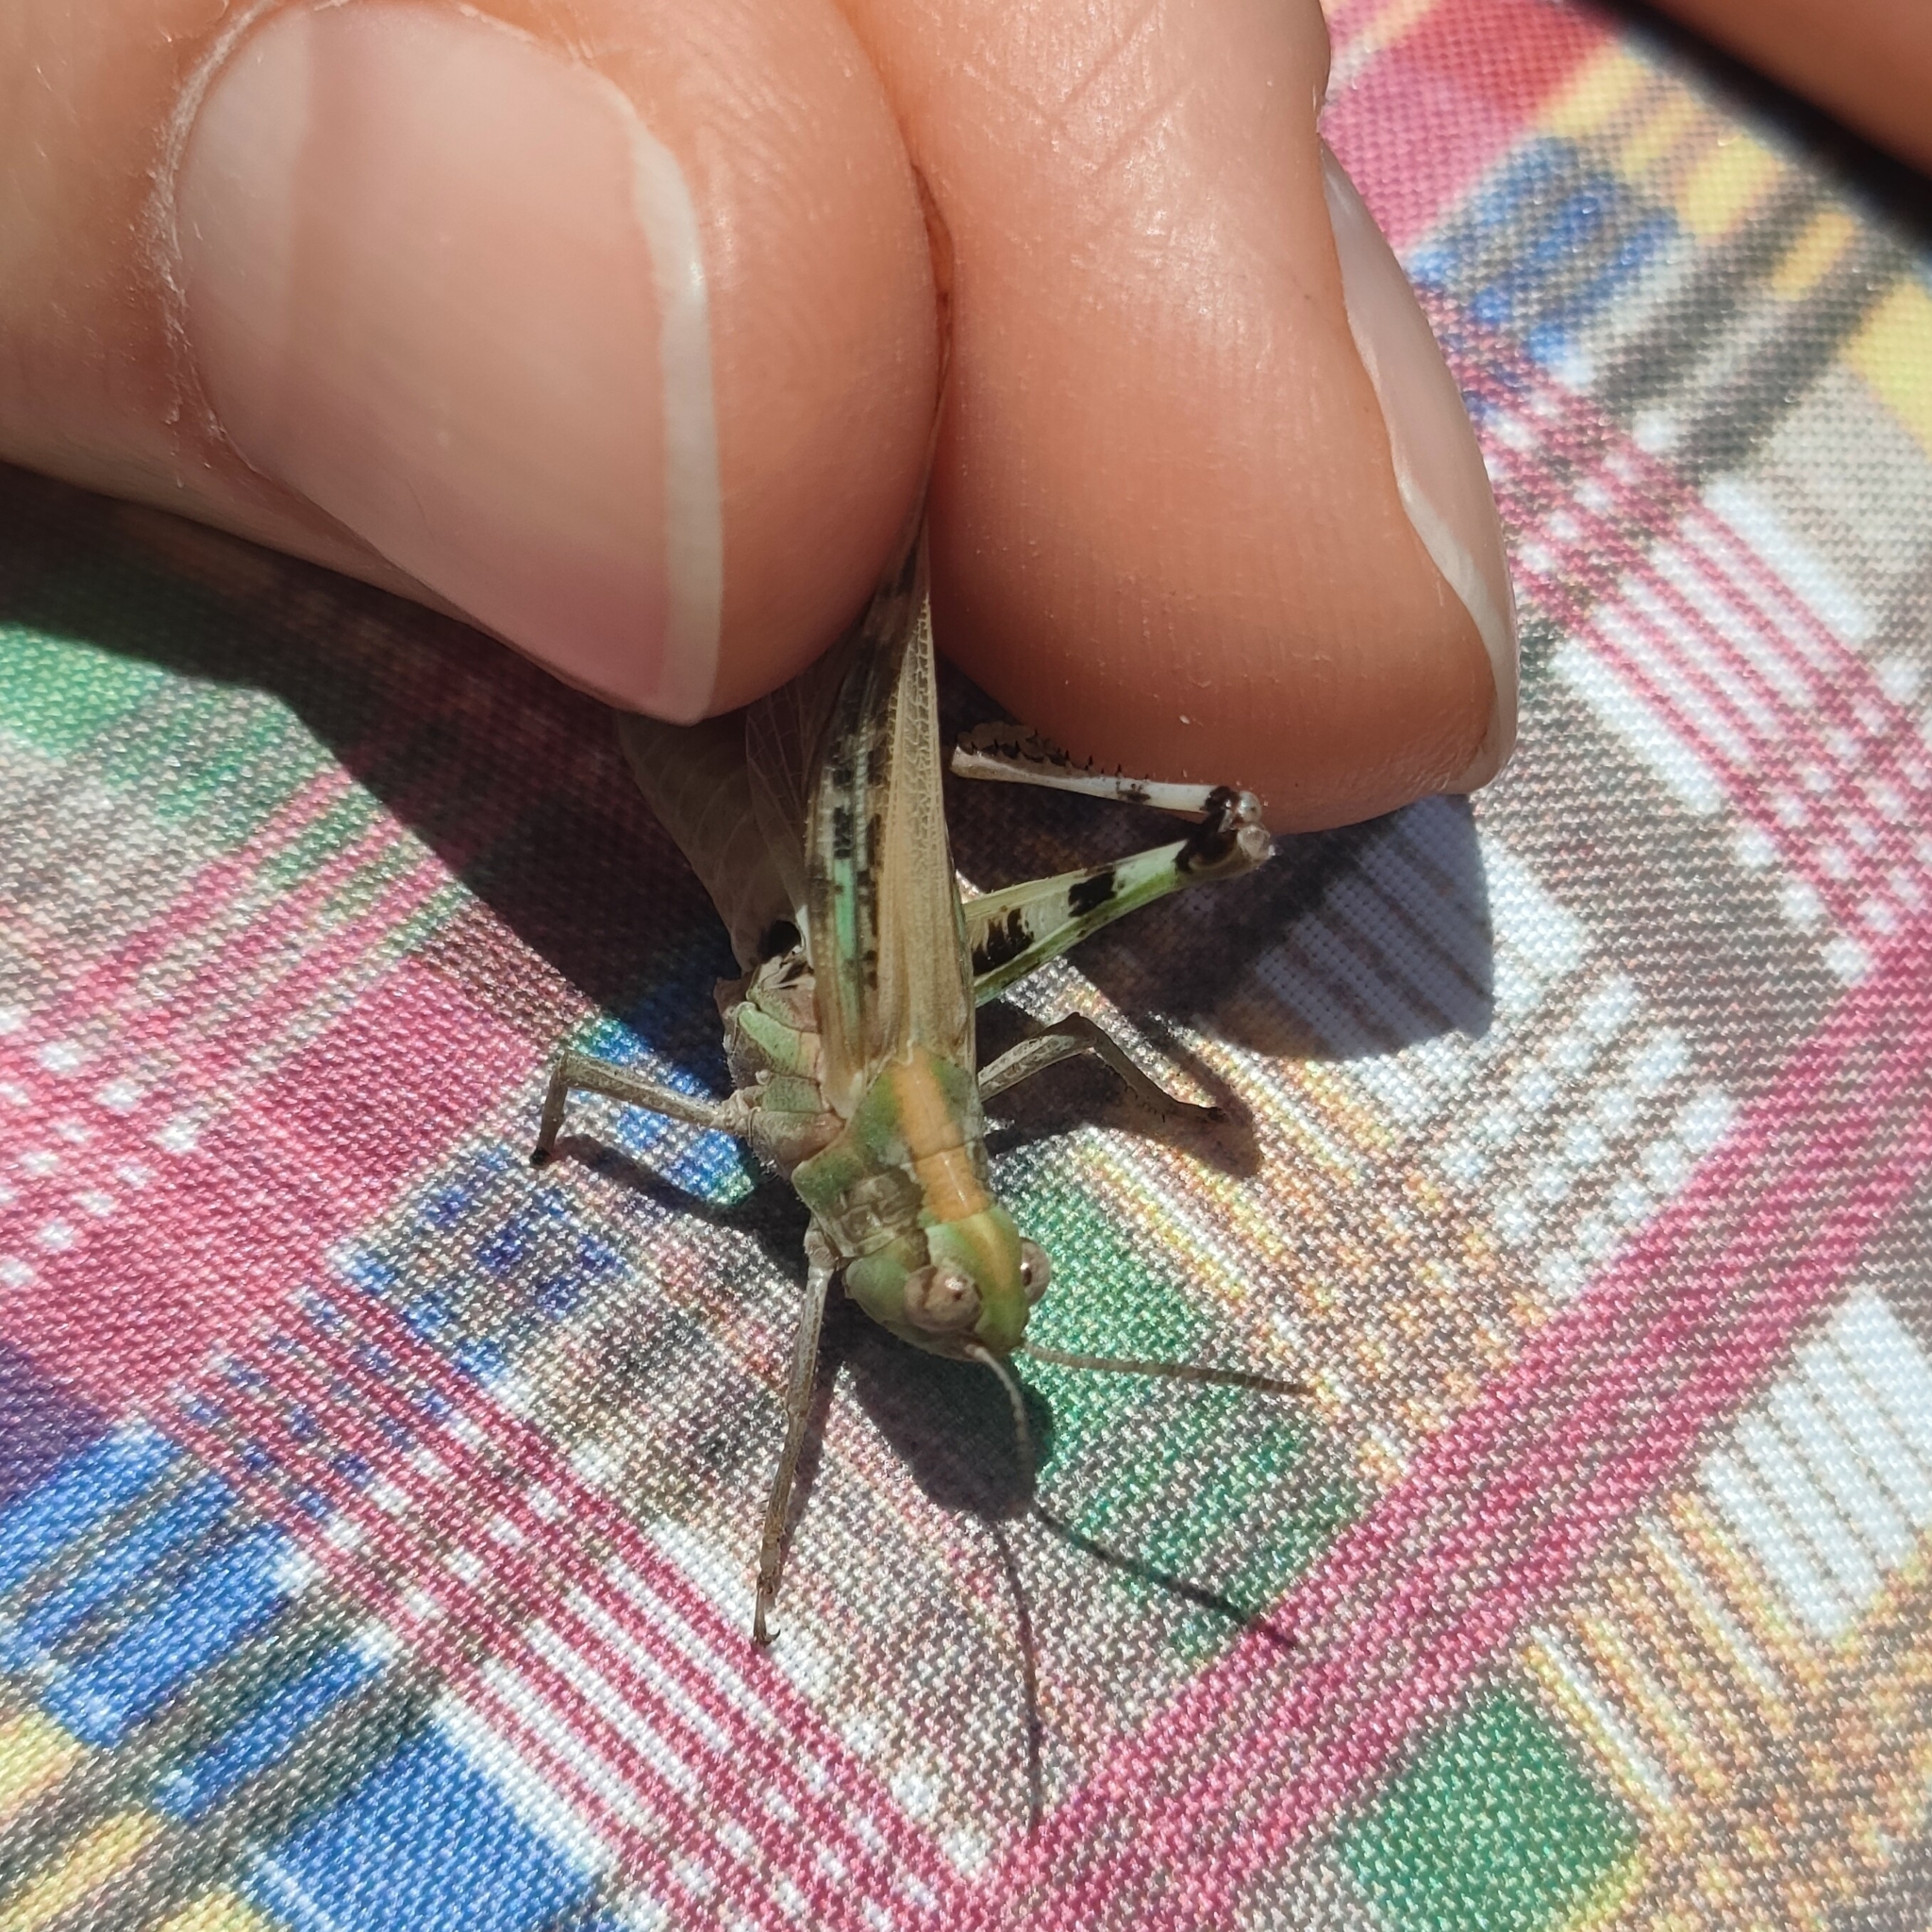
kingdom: Animalia
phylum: Arthropoda
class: Insecta
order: Orthoptera
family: Acrididae
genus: Aiolopus
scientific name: Aiolopus thalassinus
